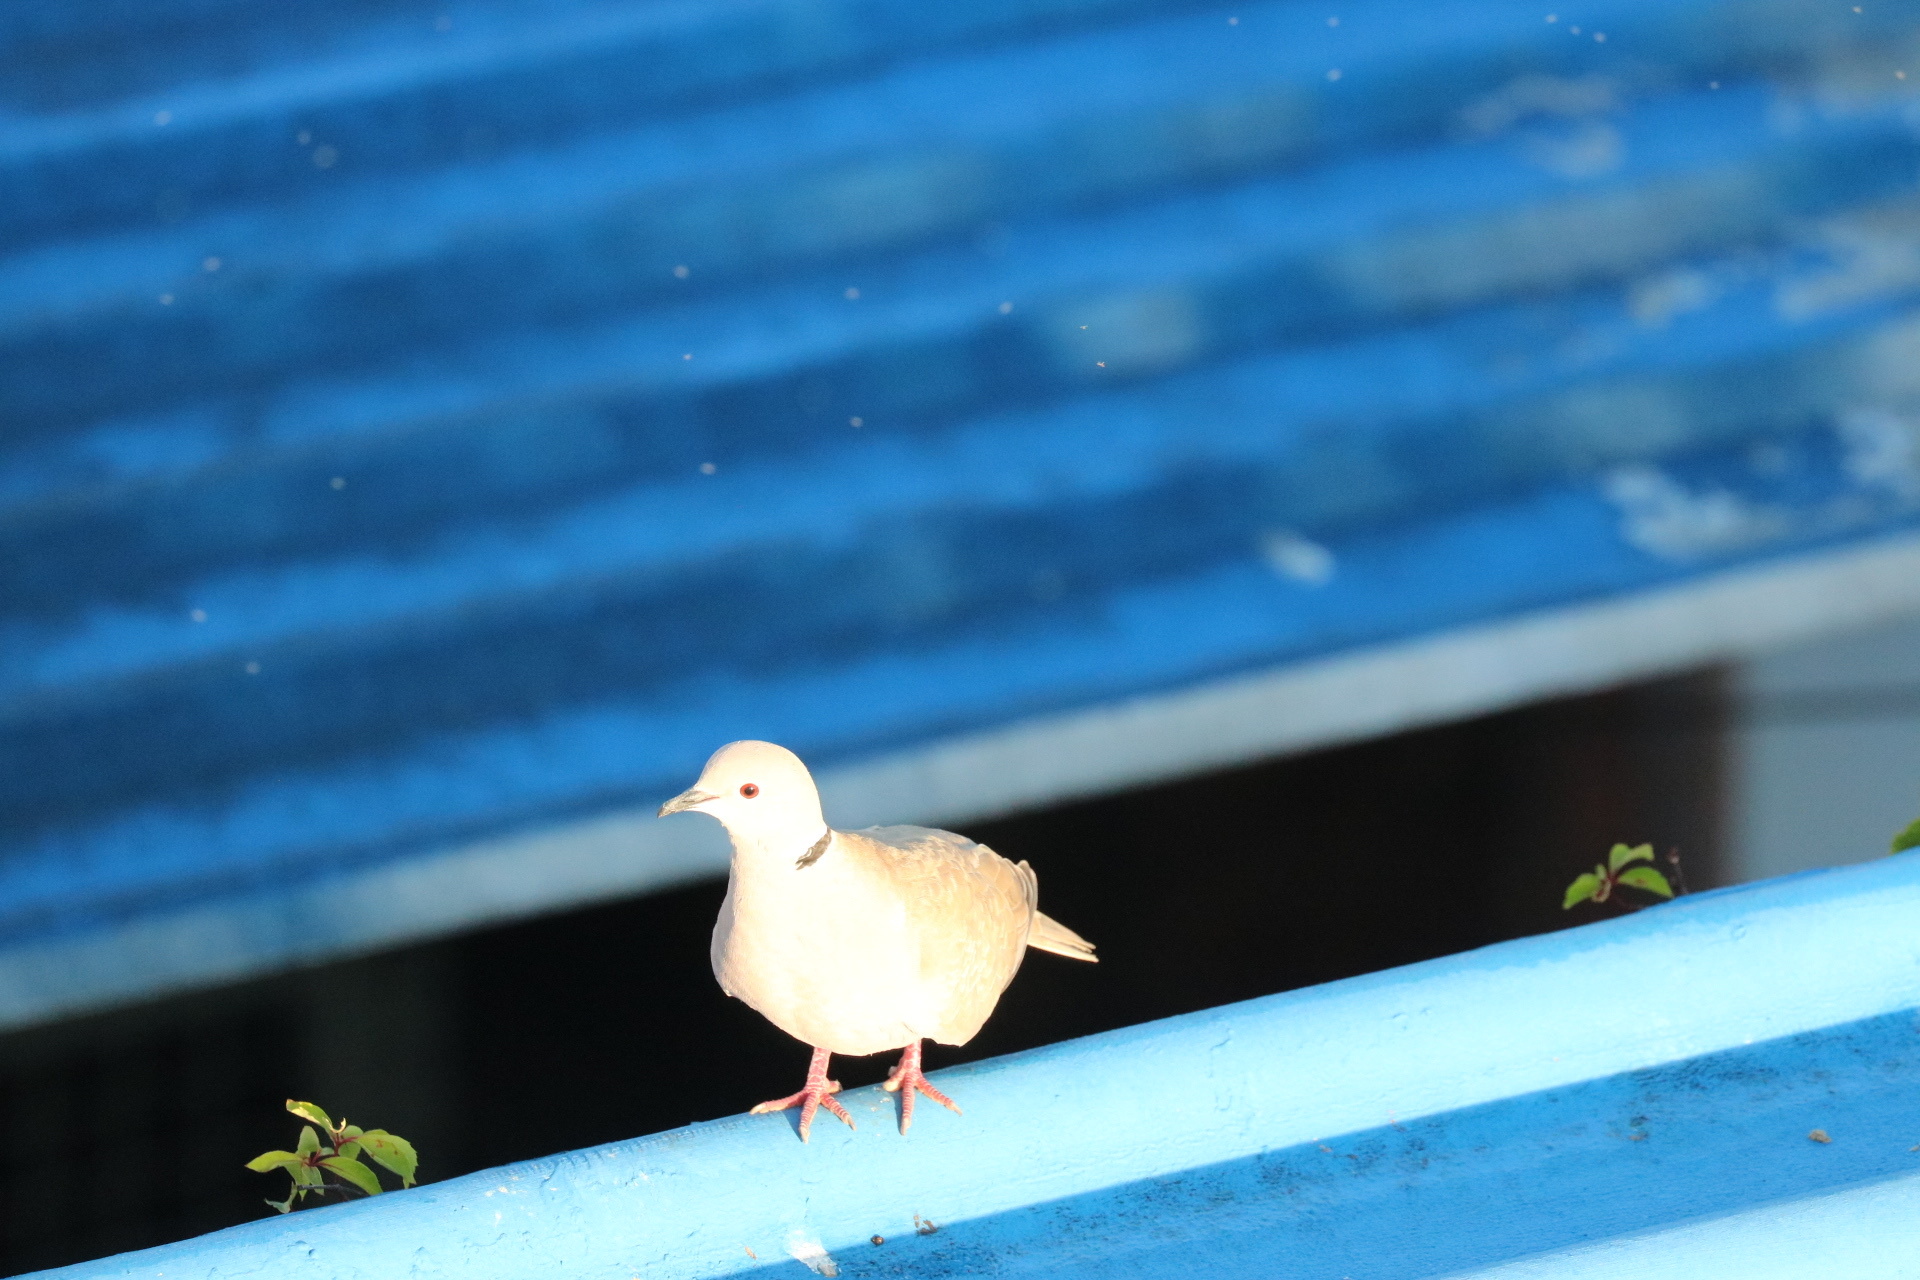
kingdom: Animalia
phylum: Chordata
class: Aves
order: Columbiformes
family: Columbidae
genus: Streptopelia
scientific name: Streptopelia decaocto
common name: Eurasian collared dove
